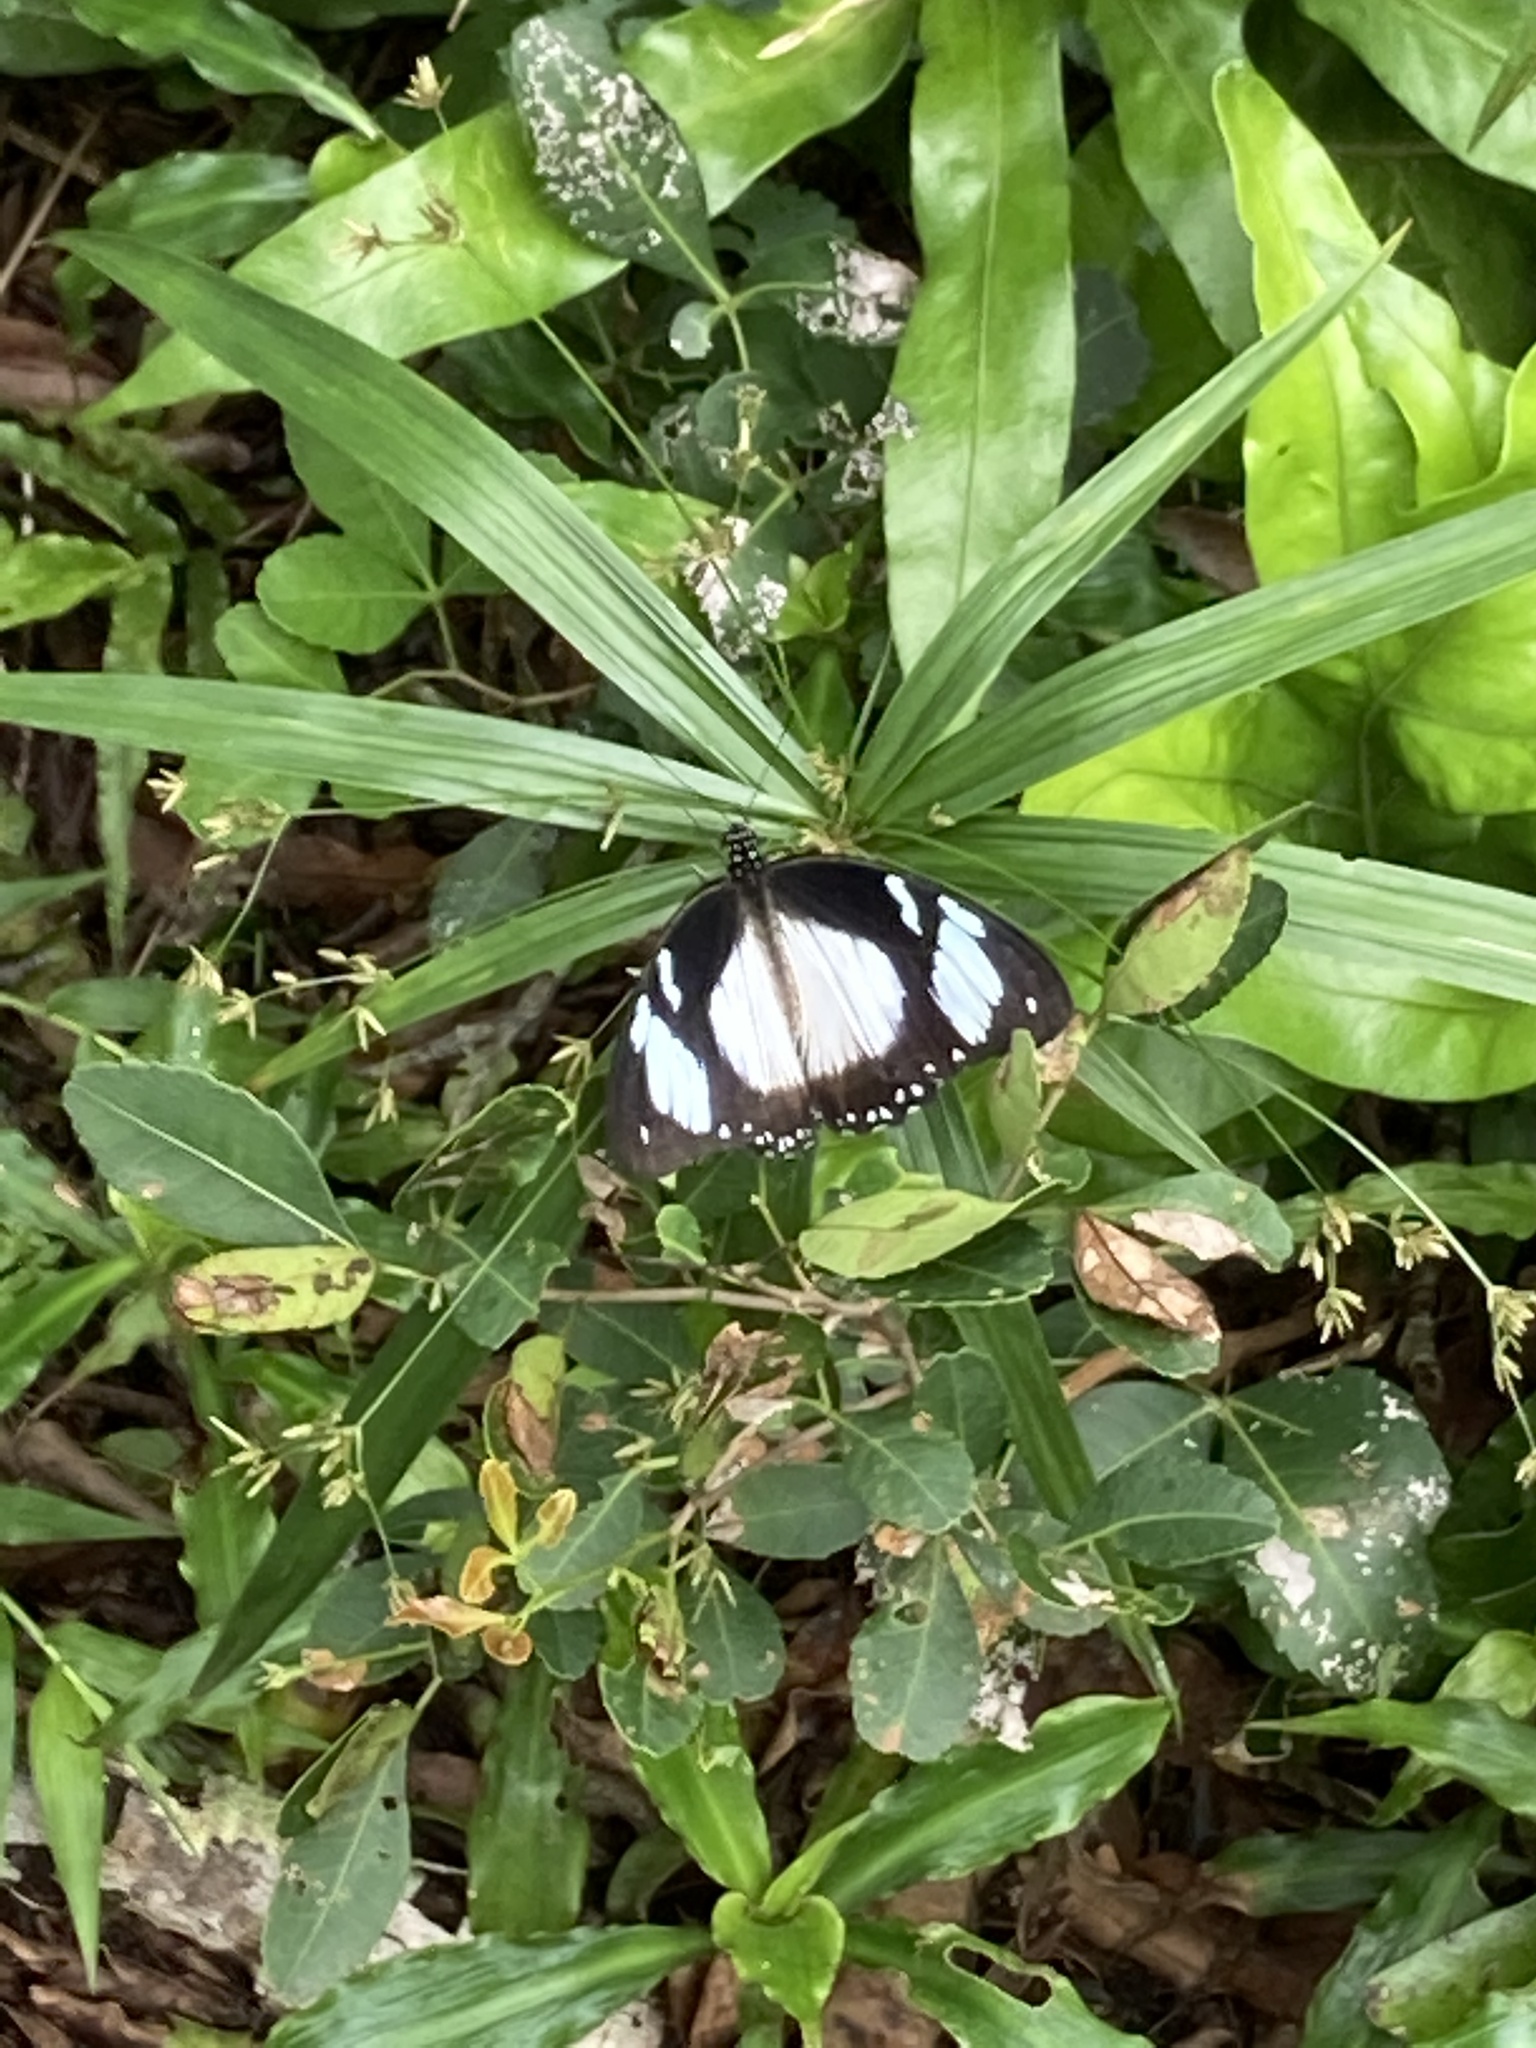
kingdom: Animalia
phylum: Arthropoda
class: Insecta
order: Lepidoptera
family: Papilionidae
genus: Papilio
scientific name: Papilio dardanus
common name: Flying handkerchief
